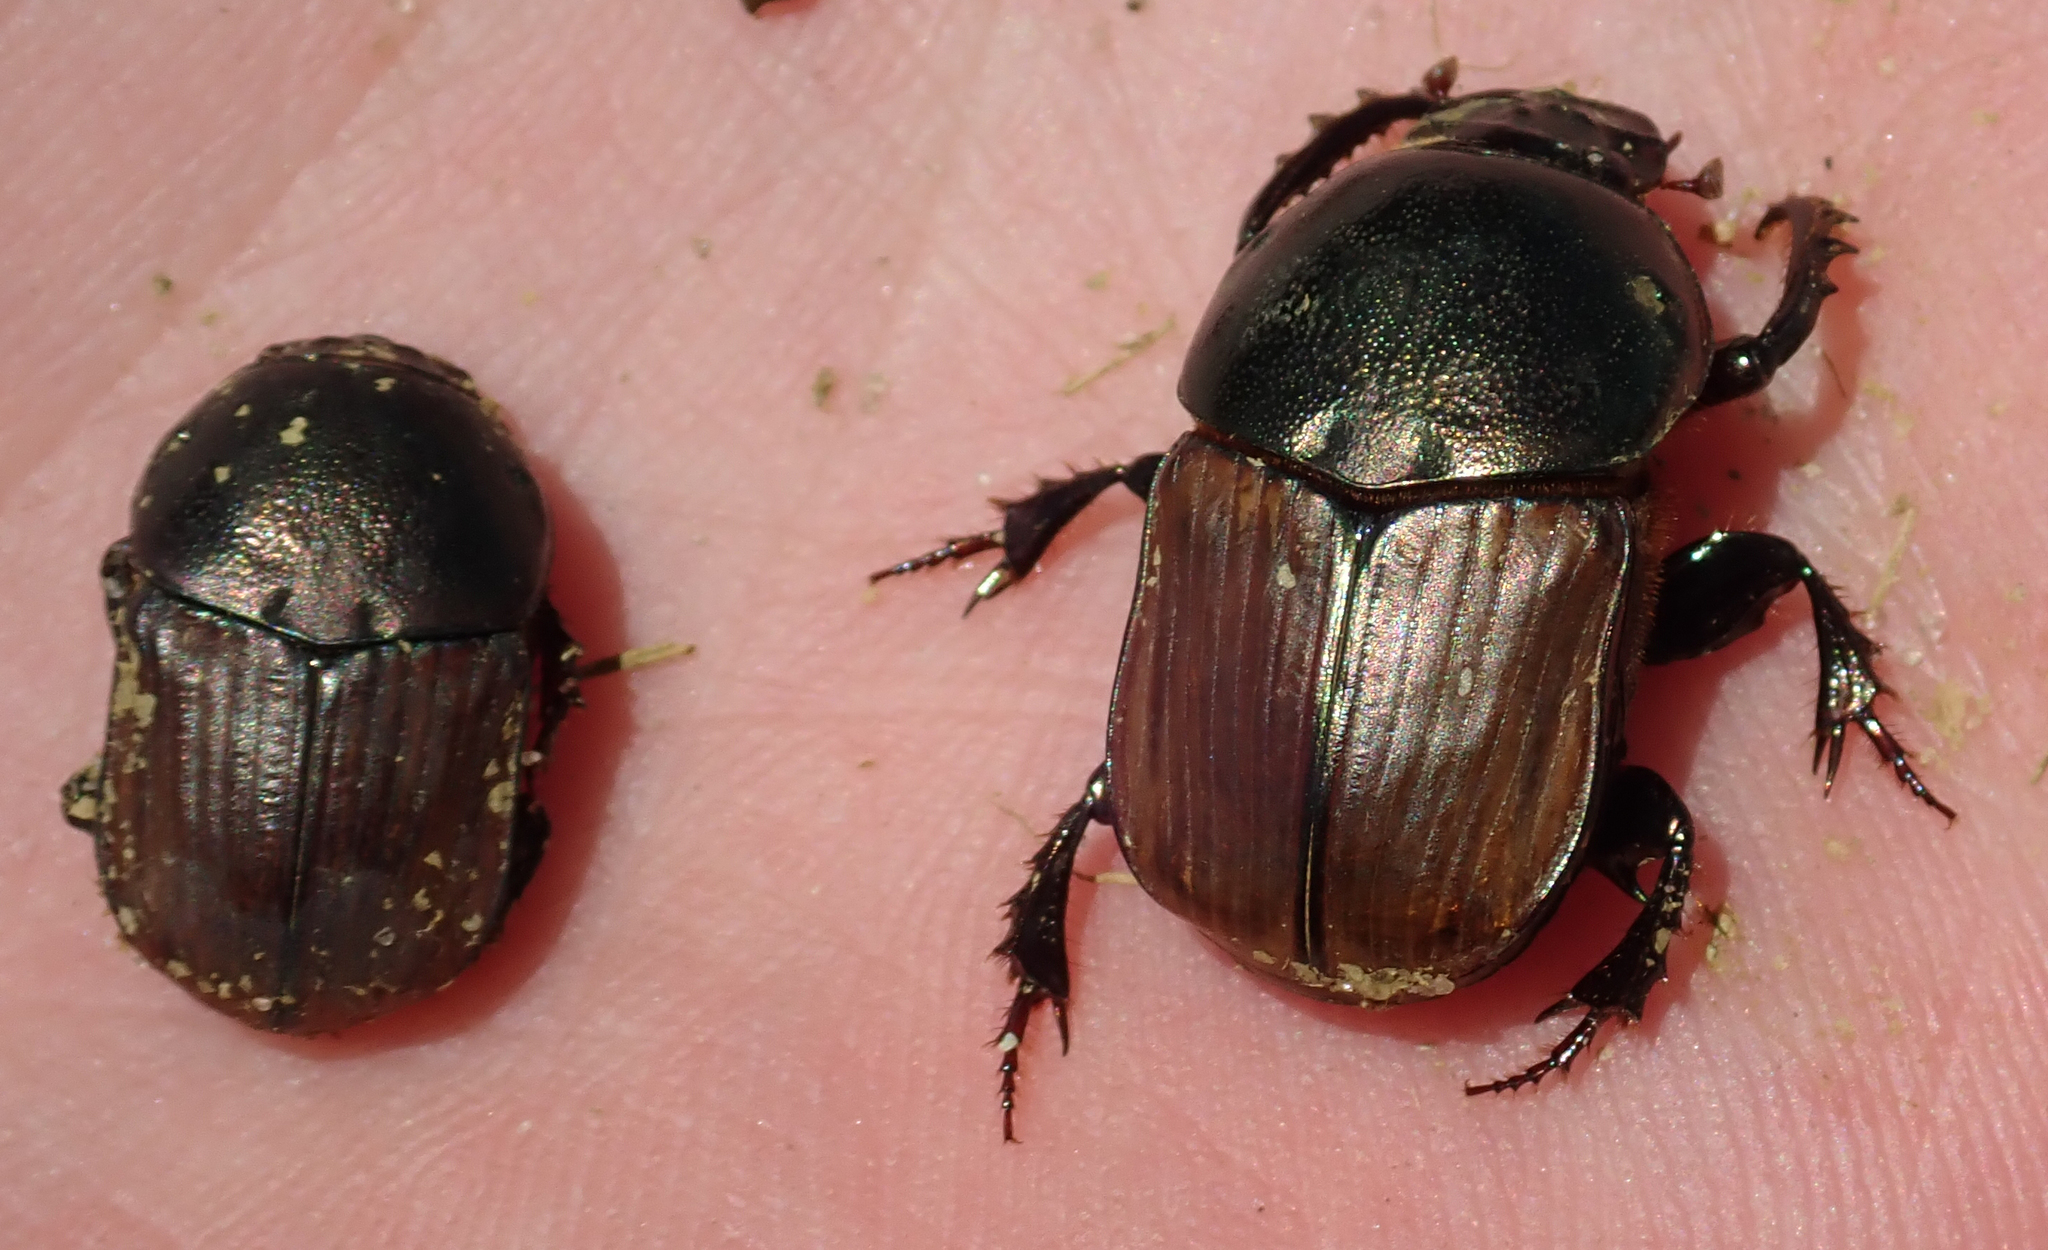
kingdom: Animalia
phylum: Arthropoda
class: Insecta
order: Coleoptera
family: Scarabaeidae
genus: Onitis
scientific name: Onitis alexis
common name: Alexis dung beetle
